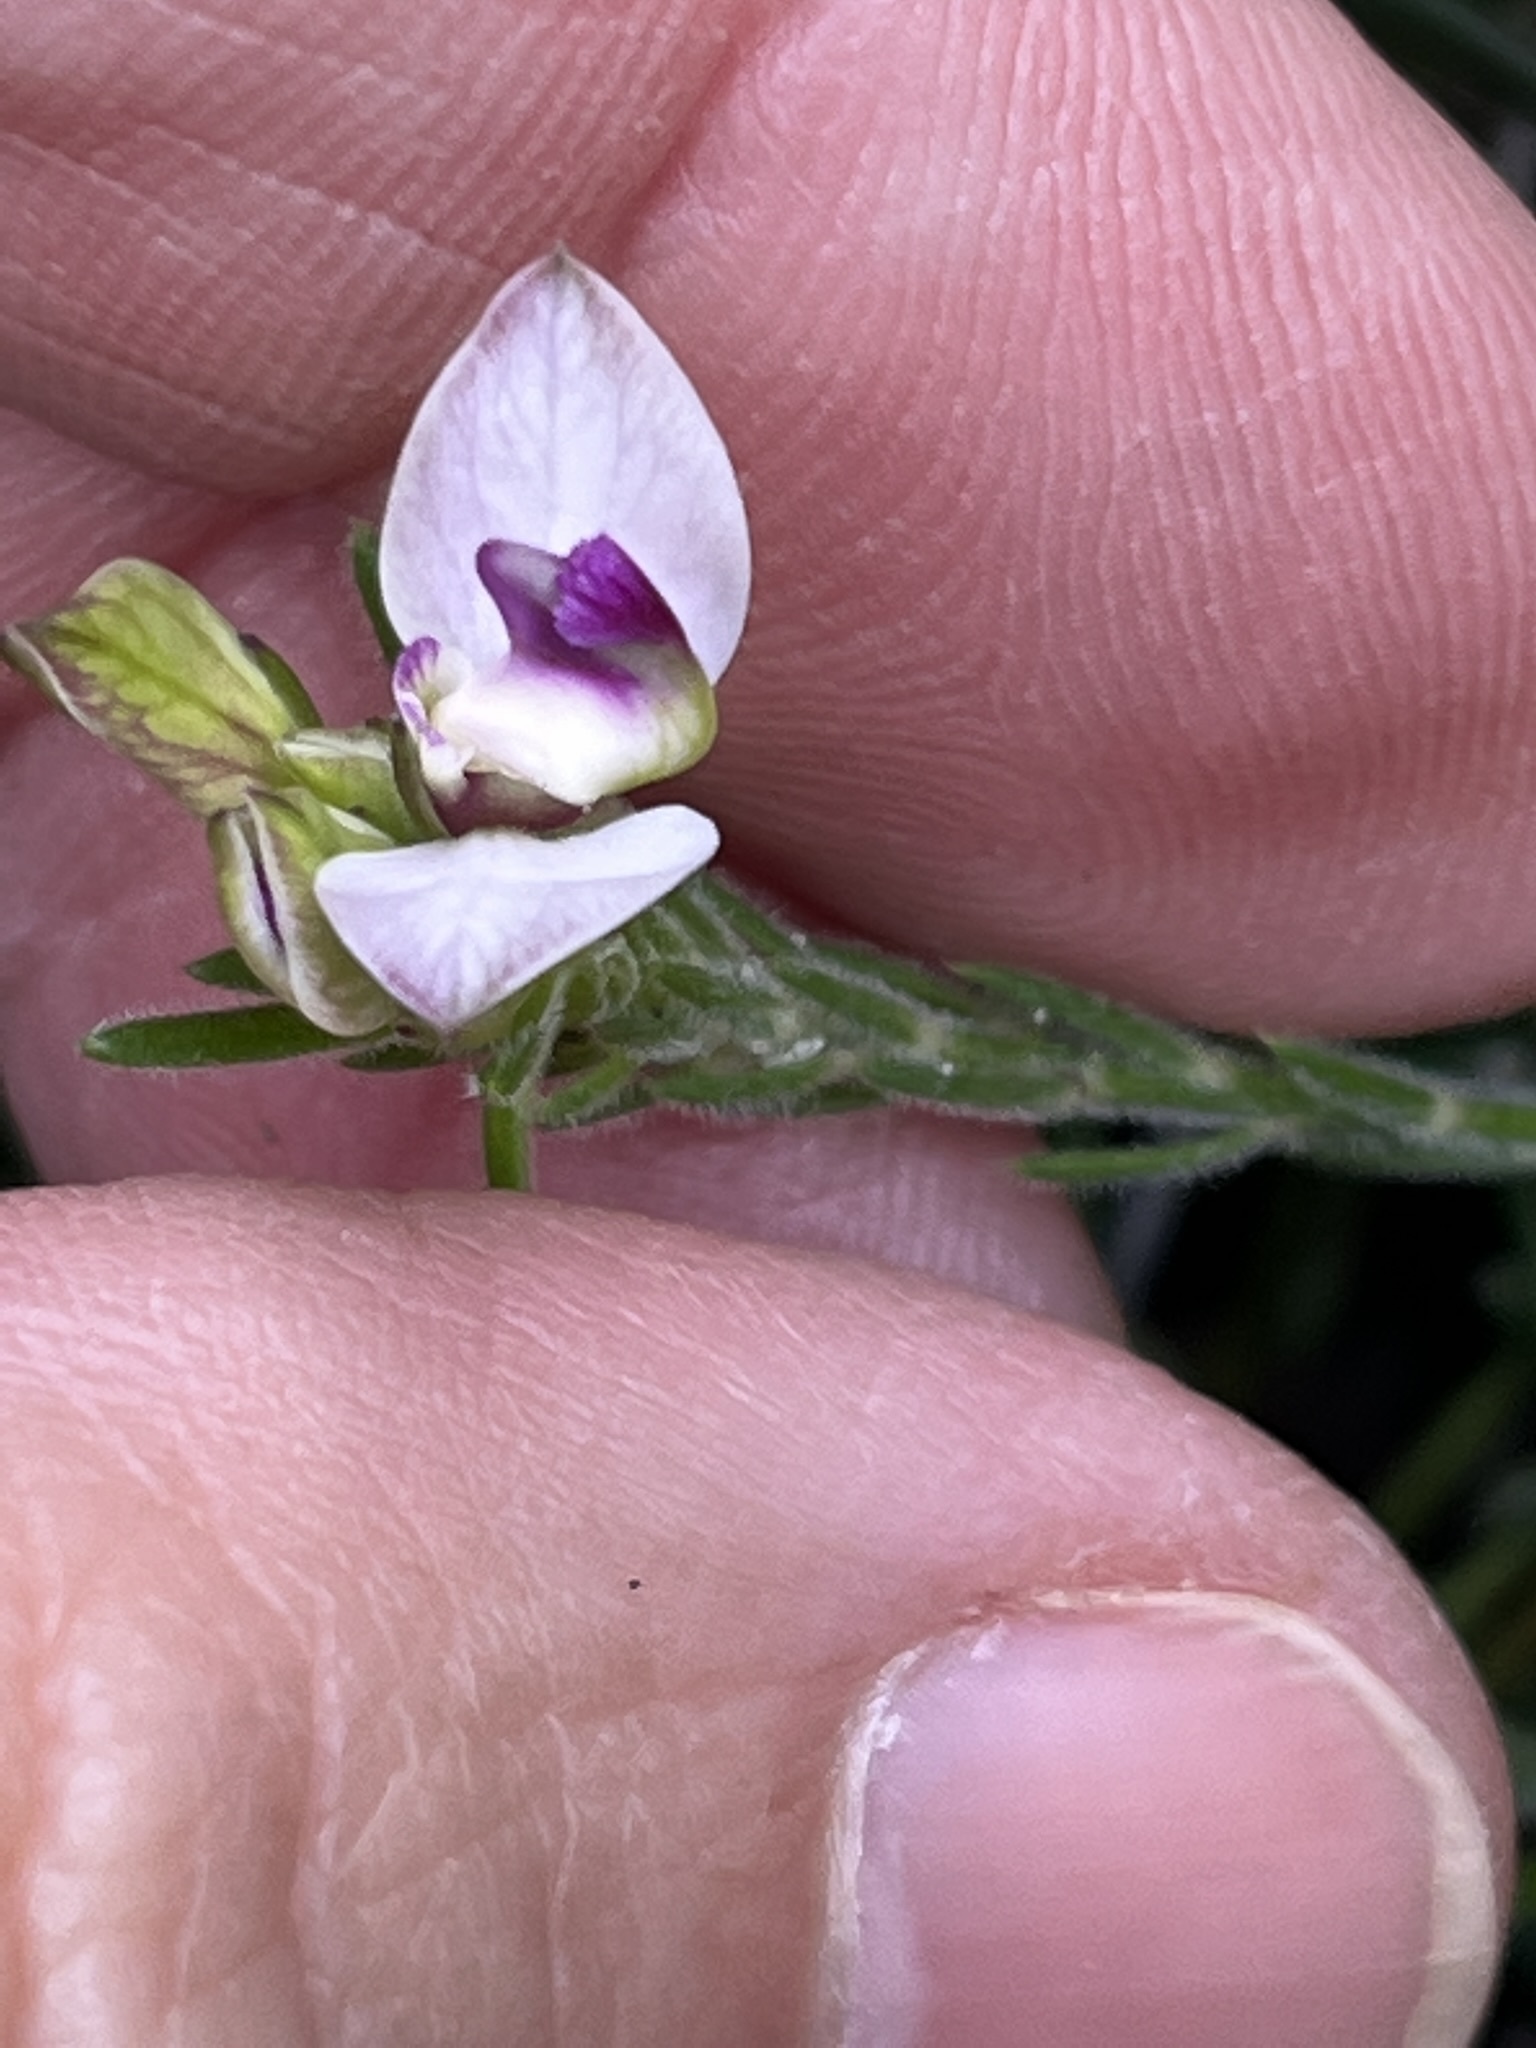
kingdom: Plantae
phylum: Tracheophyta
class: Magnoliopsida
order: Fabales
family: Polygalaceae
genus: Polygala
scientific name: Polygala dasyphylla
